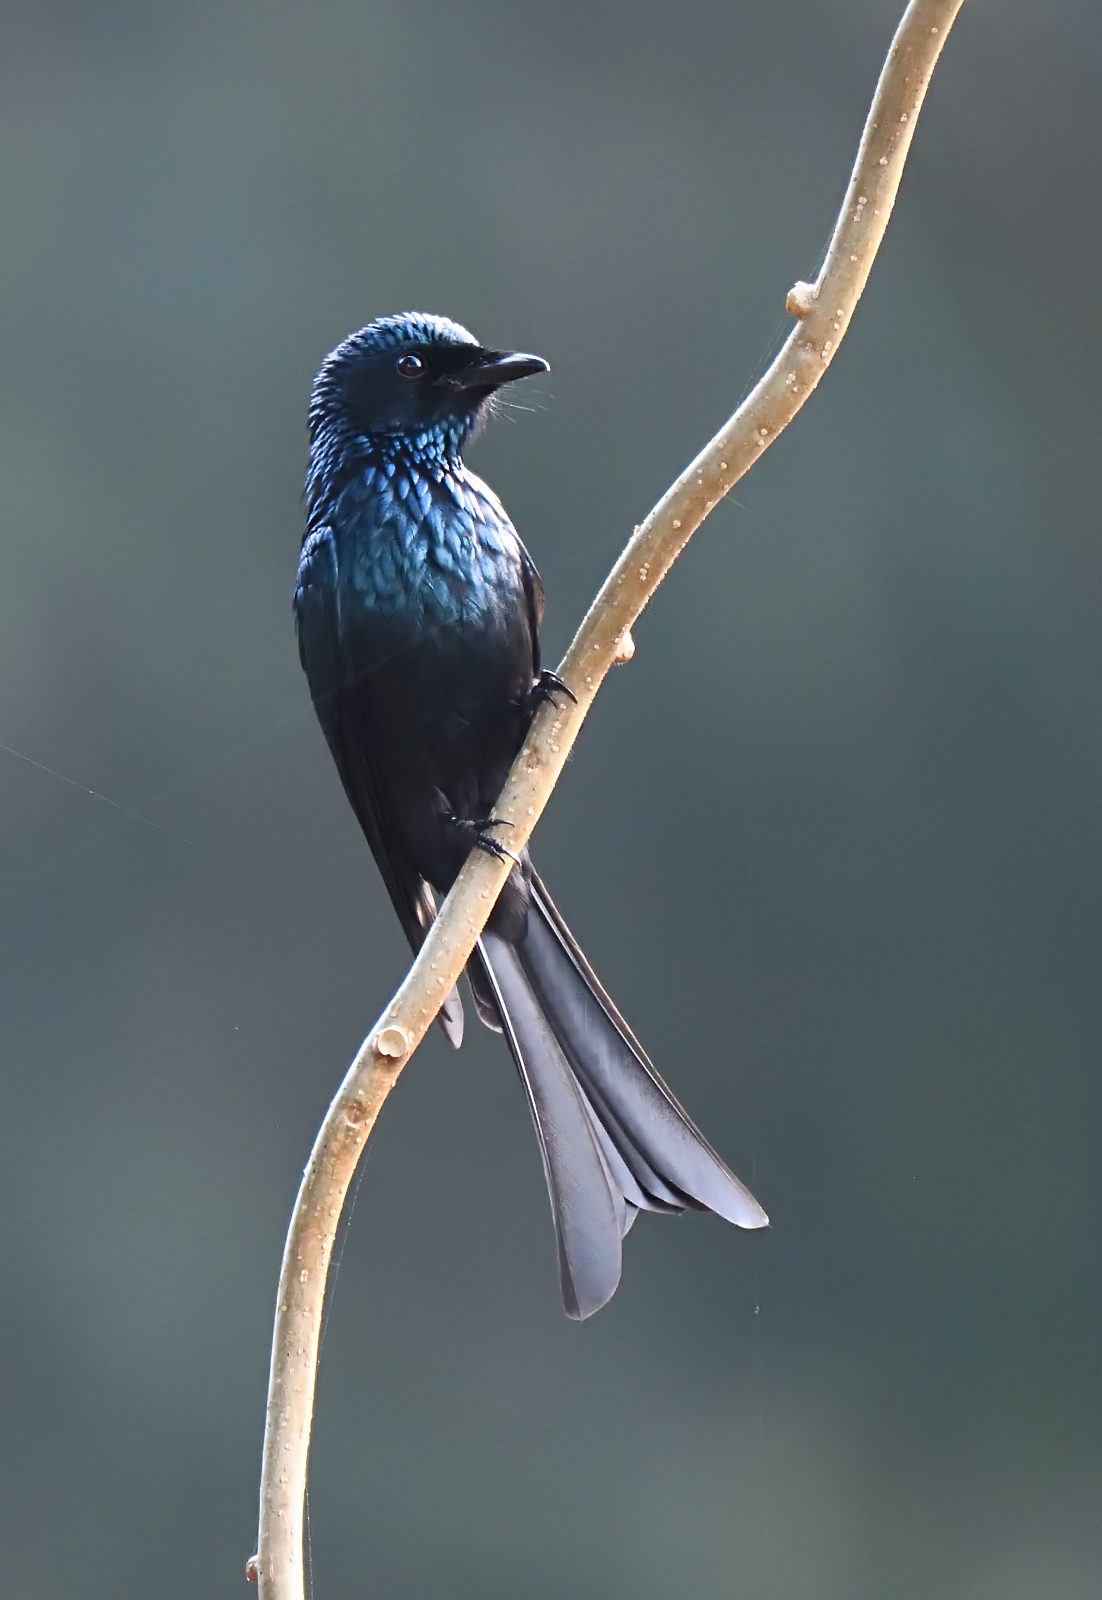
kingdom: Animalia
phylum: Chordata
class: Aves
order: Passeriformes
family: Dicruridae
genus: Dicrurus
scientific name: Dicrurus aeneus
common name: Bronzed drongo
